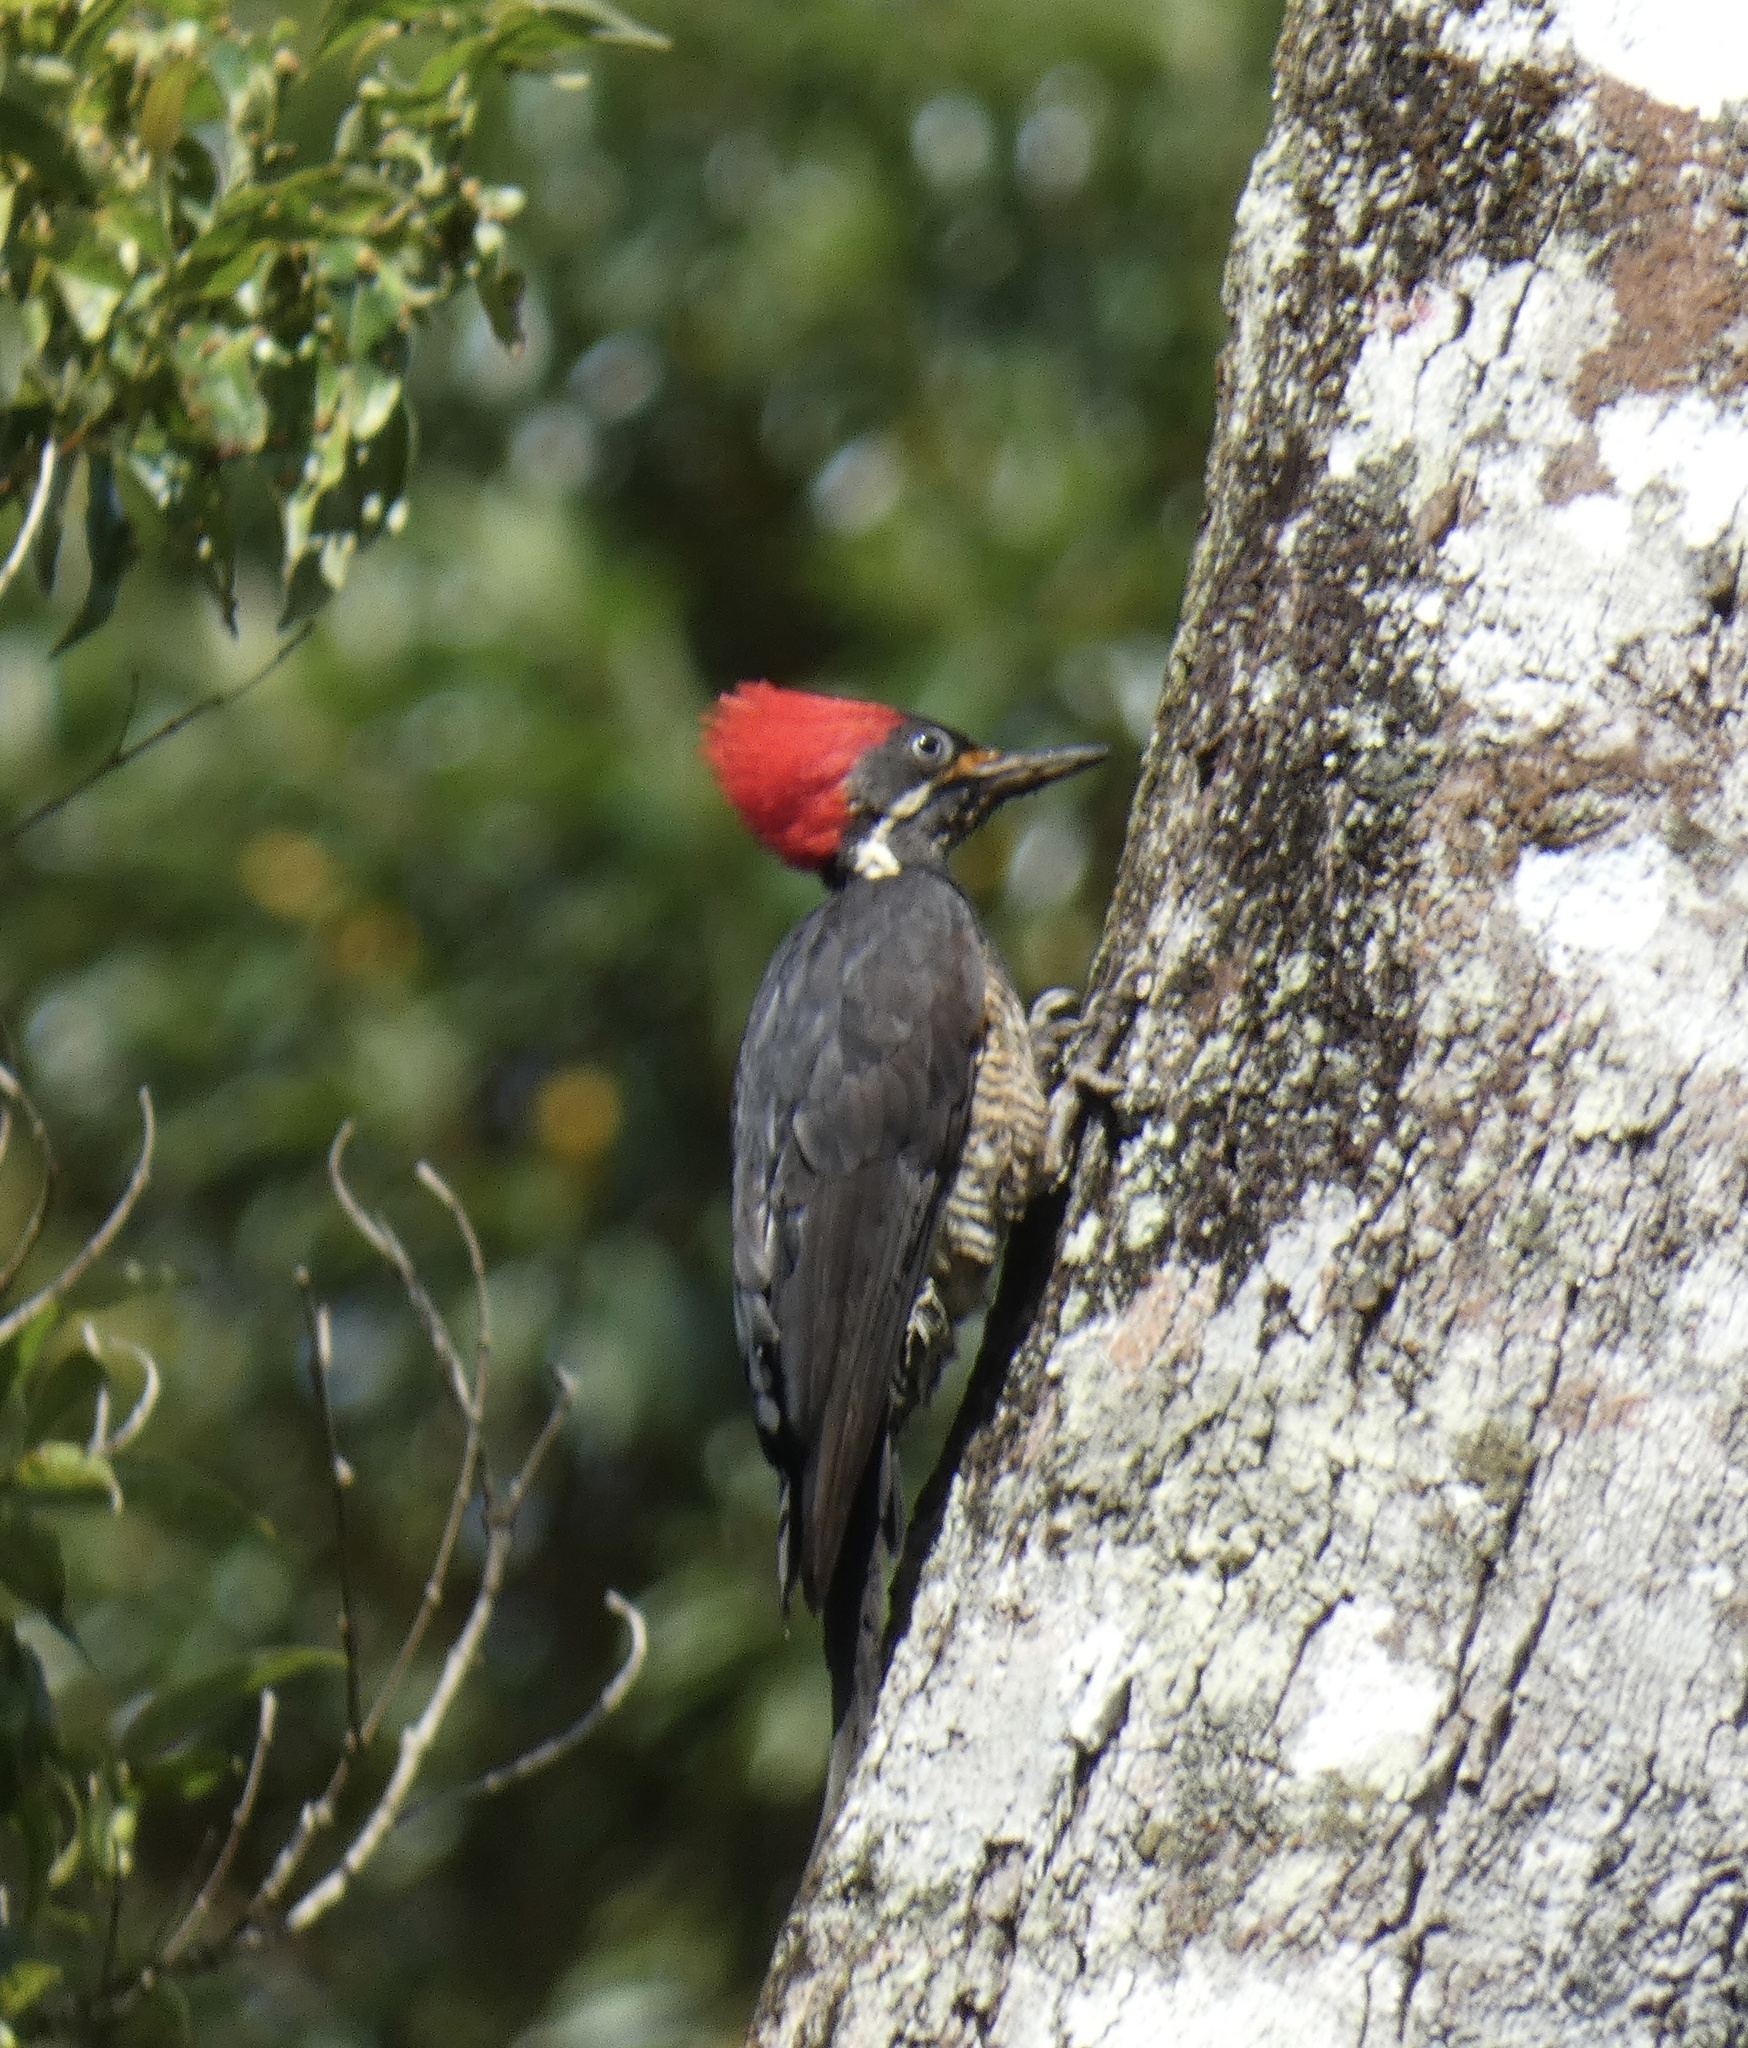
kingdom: Animalia
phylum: Chordata
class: Aves
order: Piciformes
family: Picidae
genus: Dryocopus
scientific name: Dryocopus lineatus
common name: Lineated woodpecker
